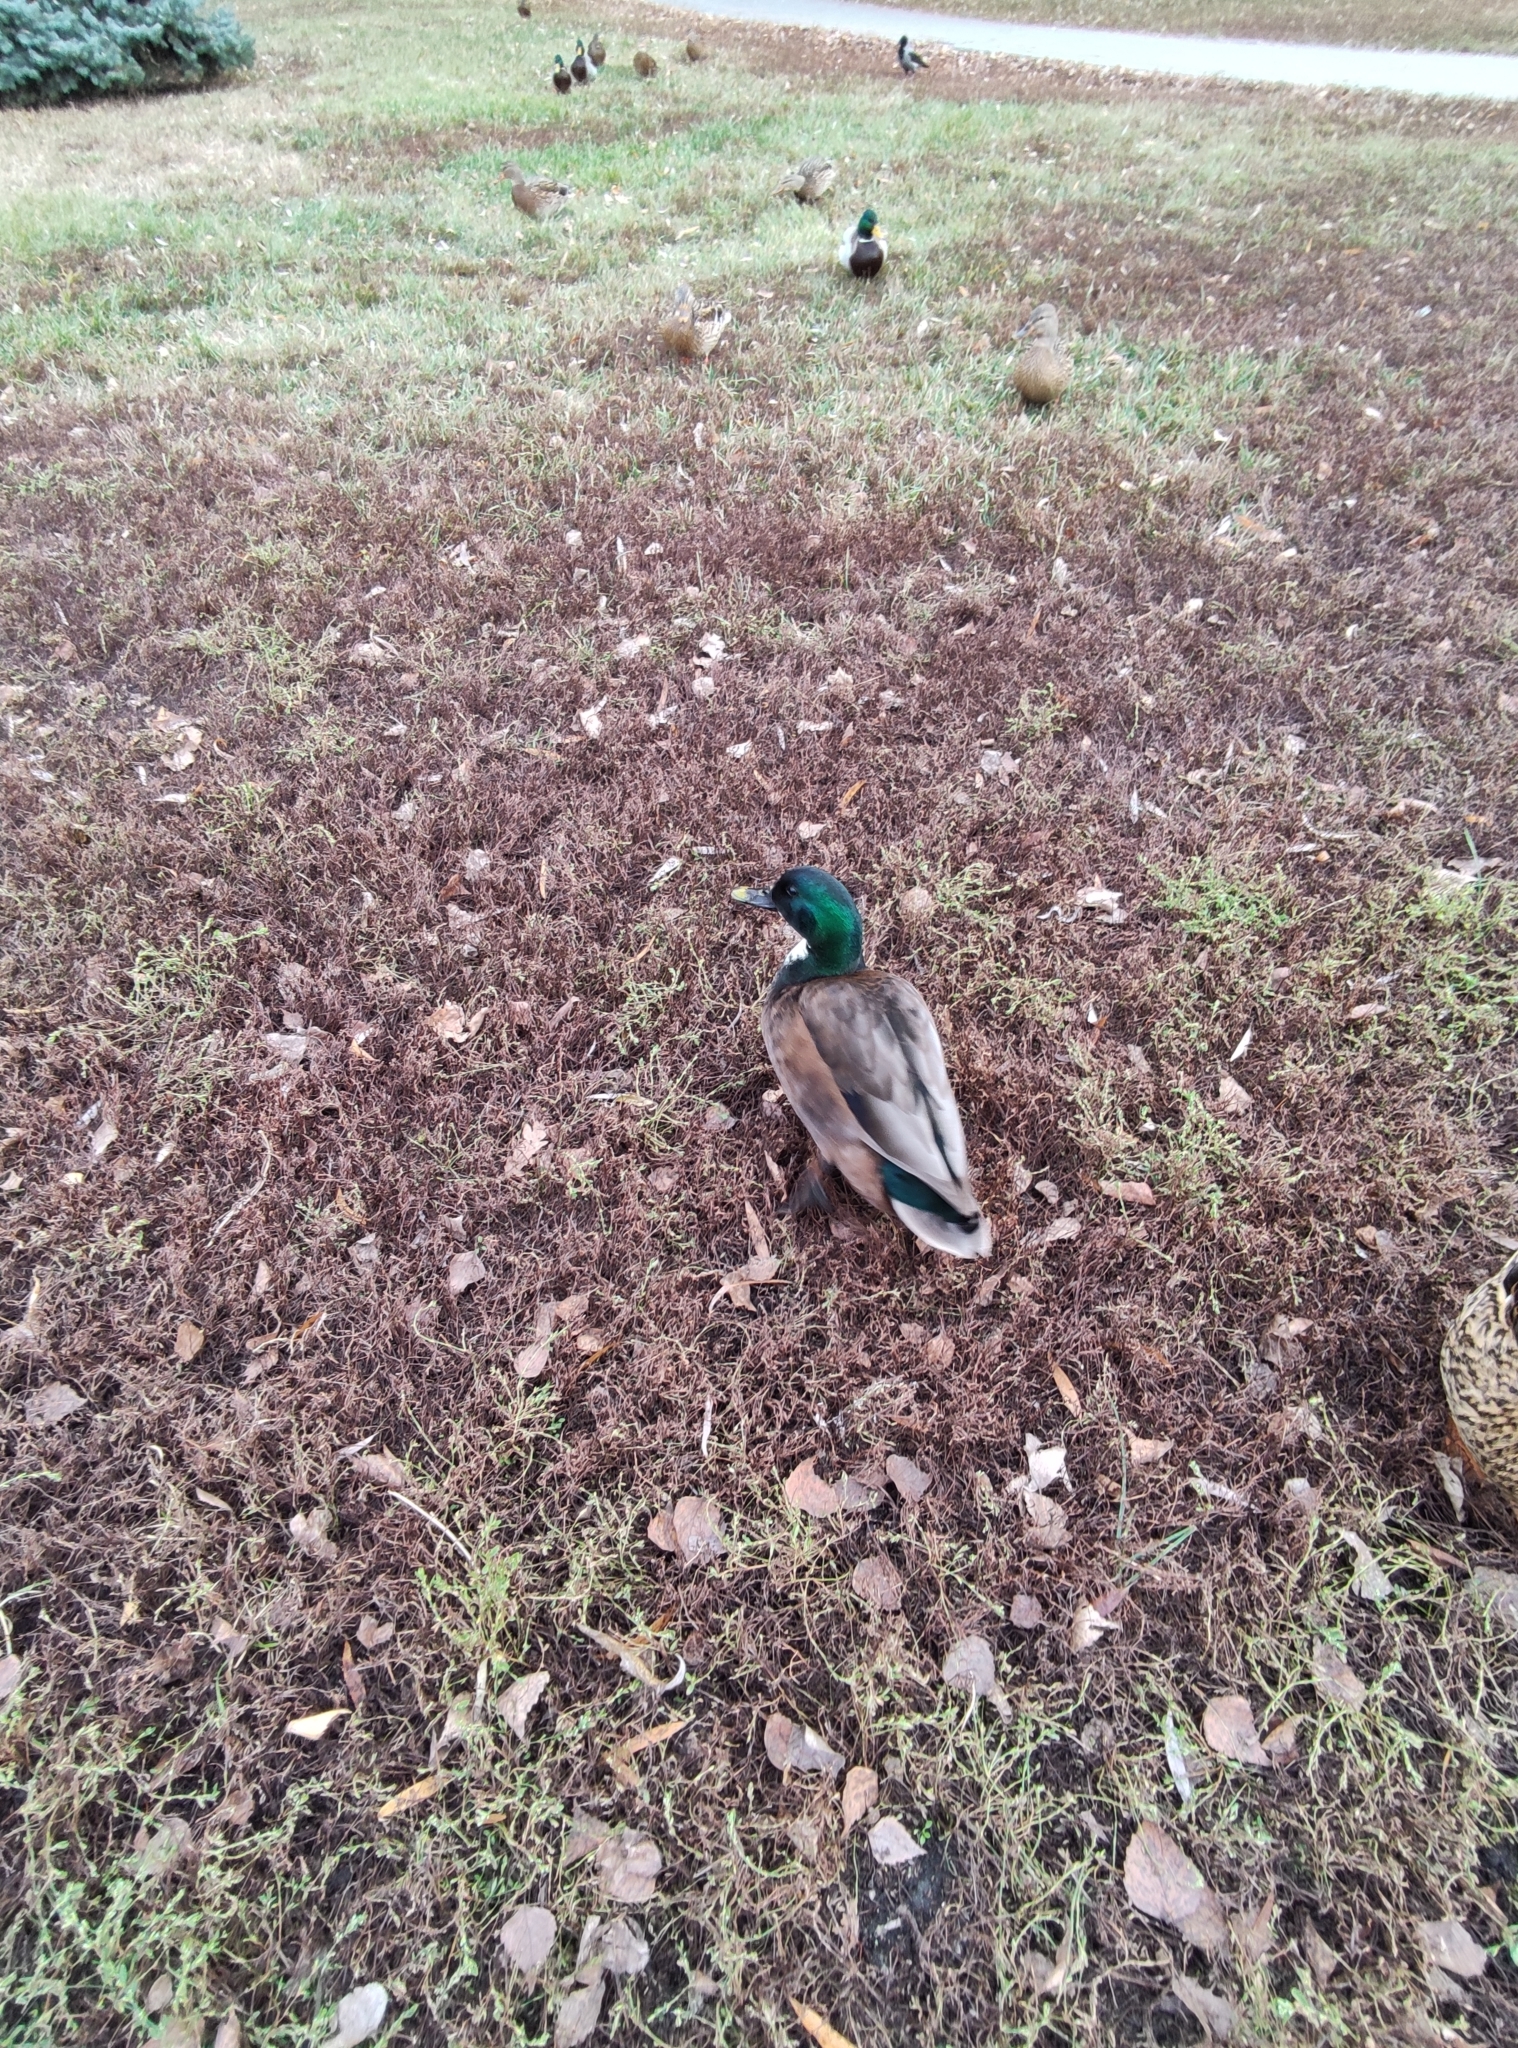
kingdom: Animalia
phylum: Chordata
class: Aves
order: Anseriformes
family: Anatidae
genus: Anas
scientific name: Anas platyrhynchos
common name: Mallard
